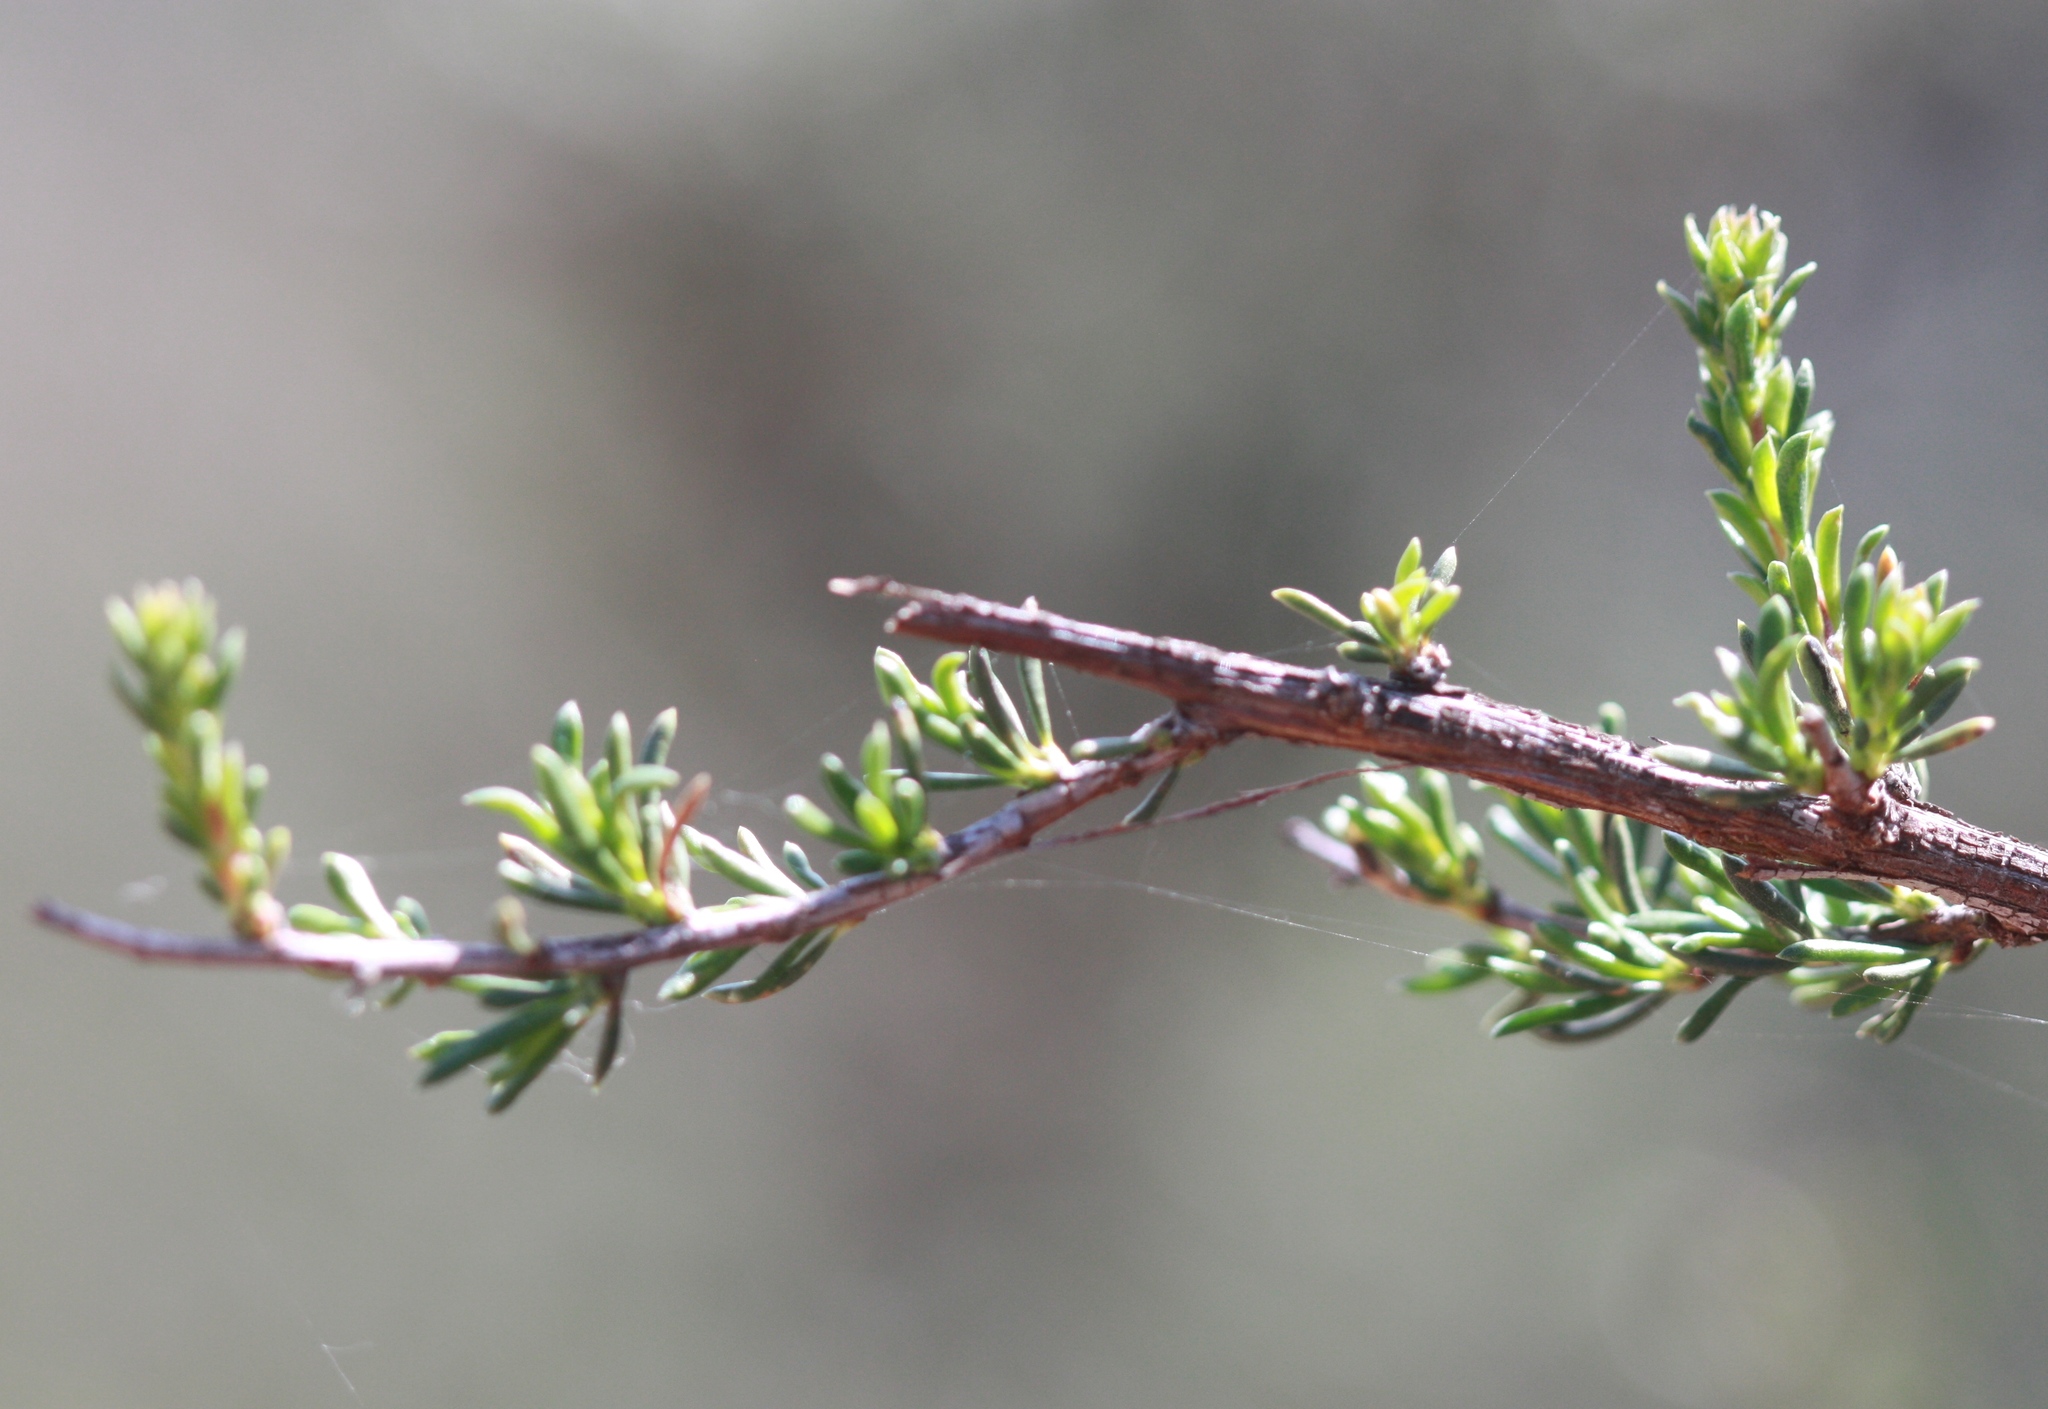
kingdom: Plantae
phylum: Tracheophyta
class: Magnoliopsida
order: Rosales
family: Rosaceae
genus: Adenostoma
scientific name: Adenostoma fasciculatum
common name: Chamise
